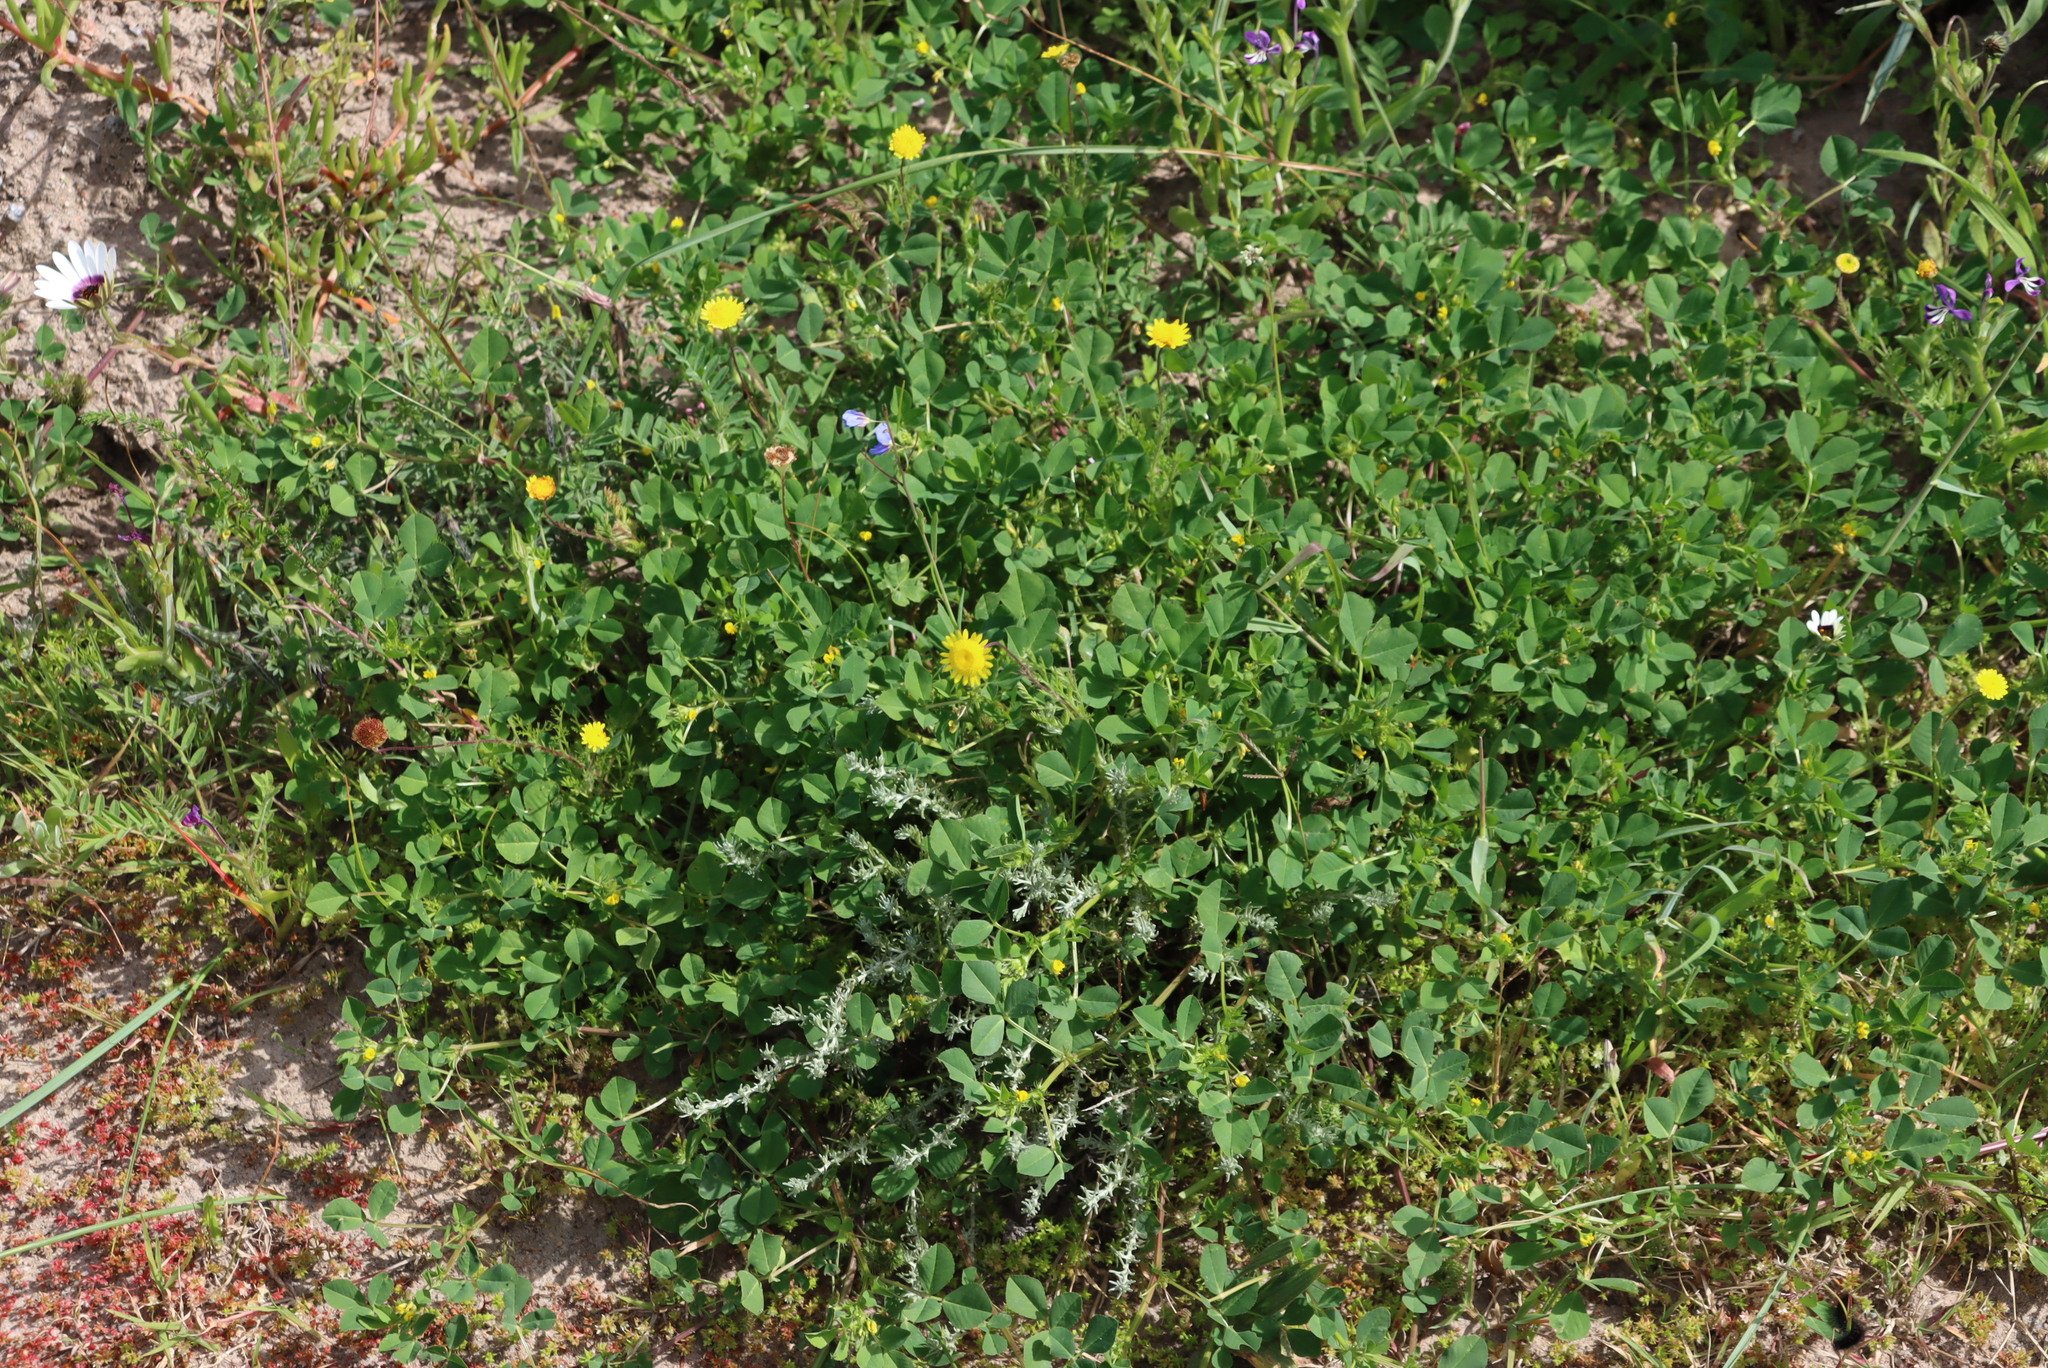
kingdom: Plantae
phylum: Tracheophyta
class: Magnoliopsida
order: Fabales
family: Fabaceae
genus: Medicago
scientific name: Medicago polymorpha
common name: Burclover
